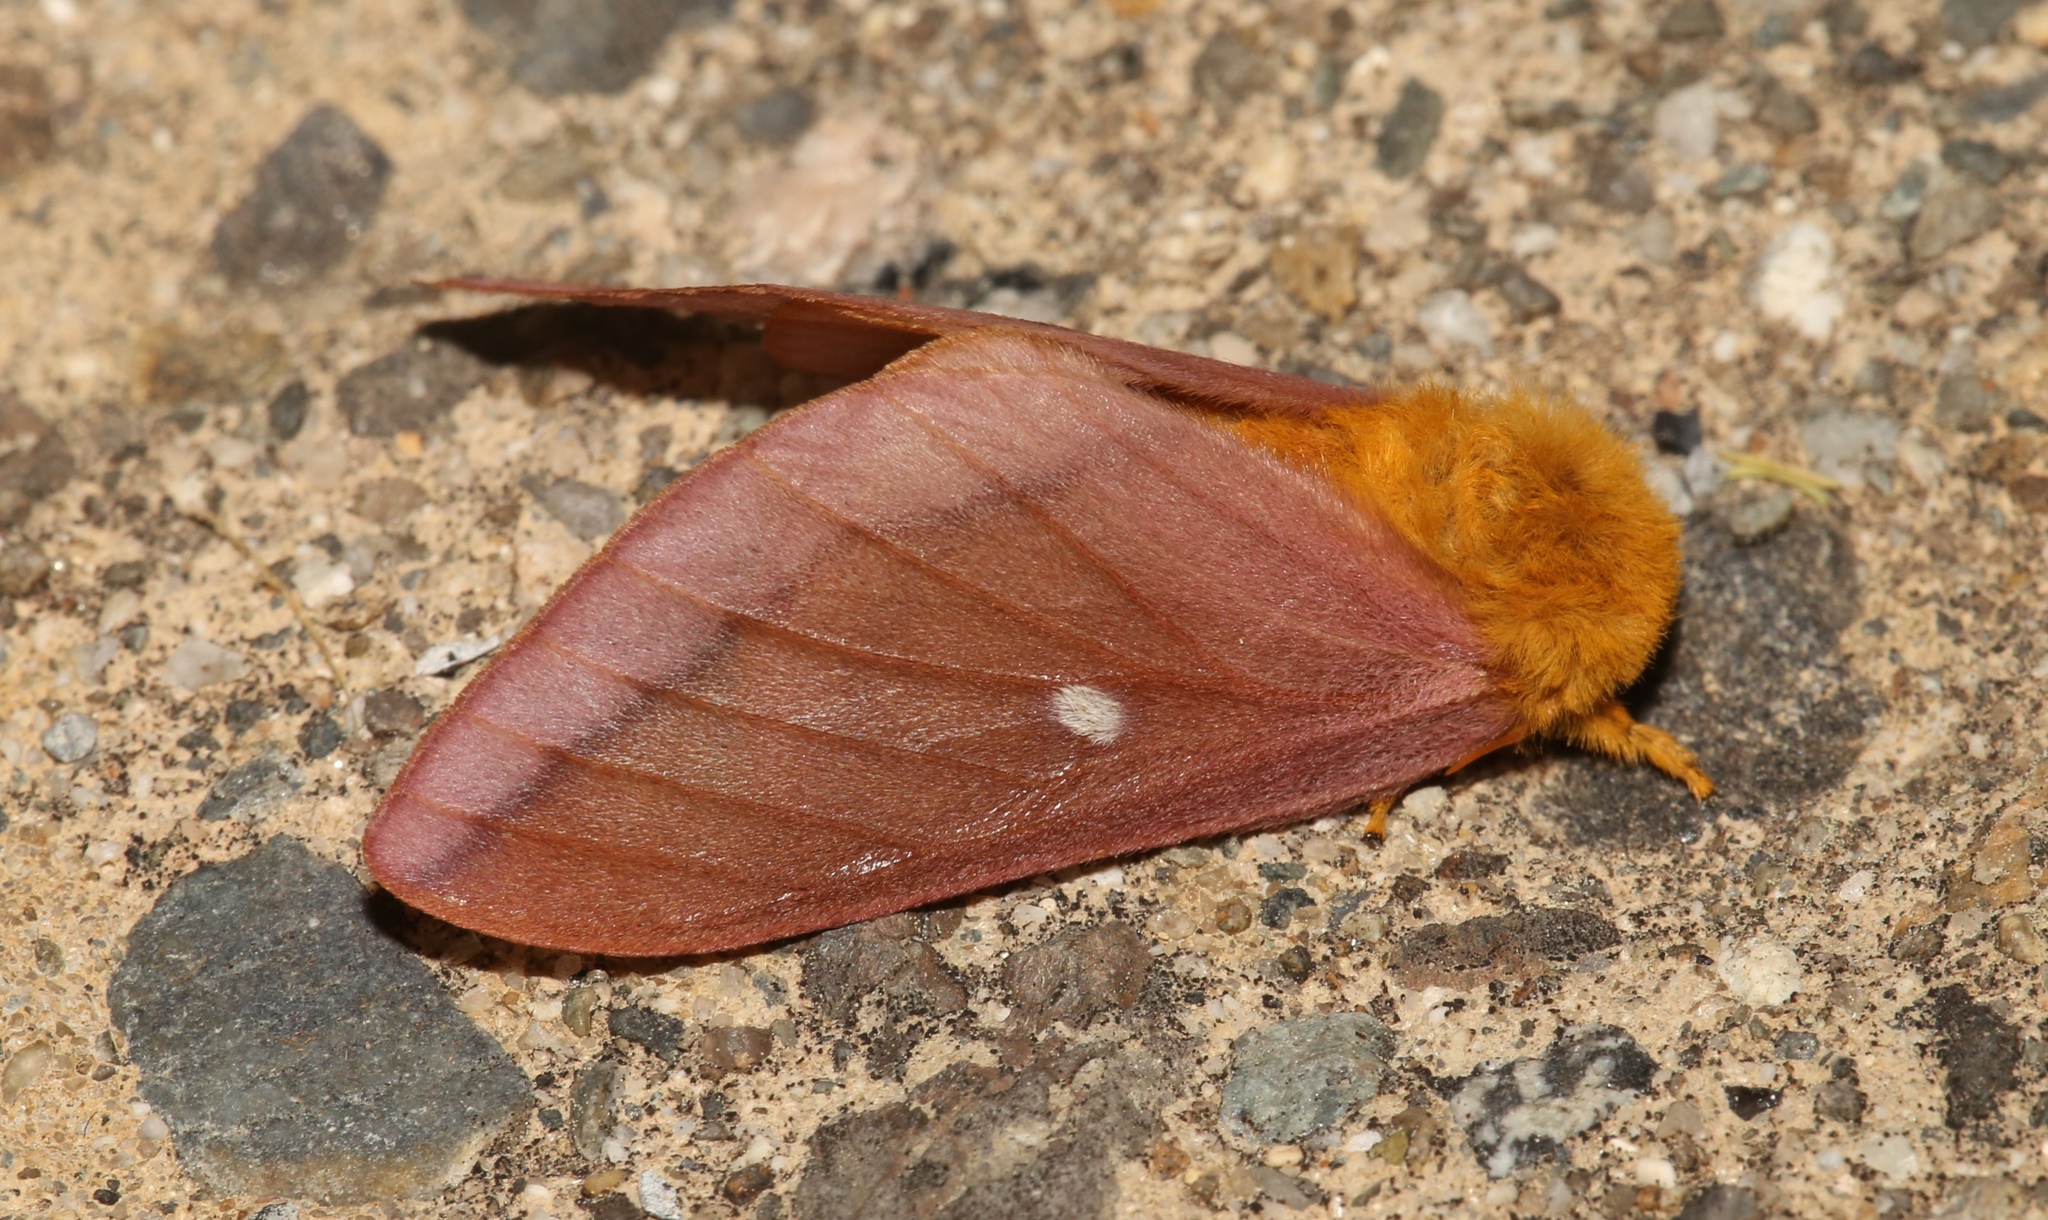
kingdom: Animalia
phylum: Arthropoda
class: Insecta
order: Lepidoptera
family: Saturniidae
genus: Anisota
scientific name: Anisota virginiensis
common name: Pink striped oakworm moth
